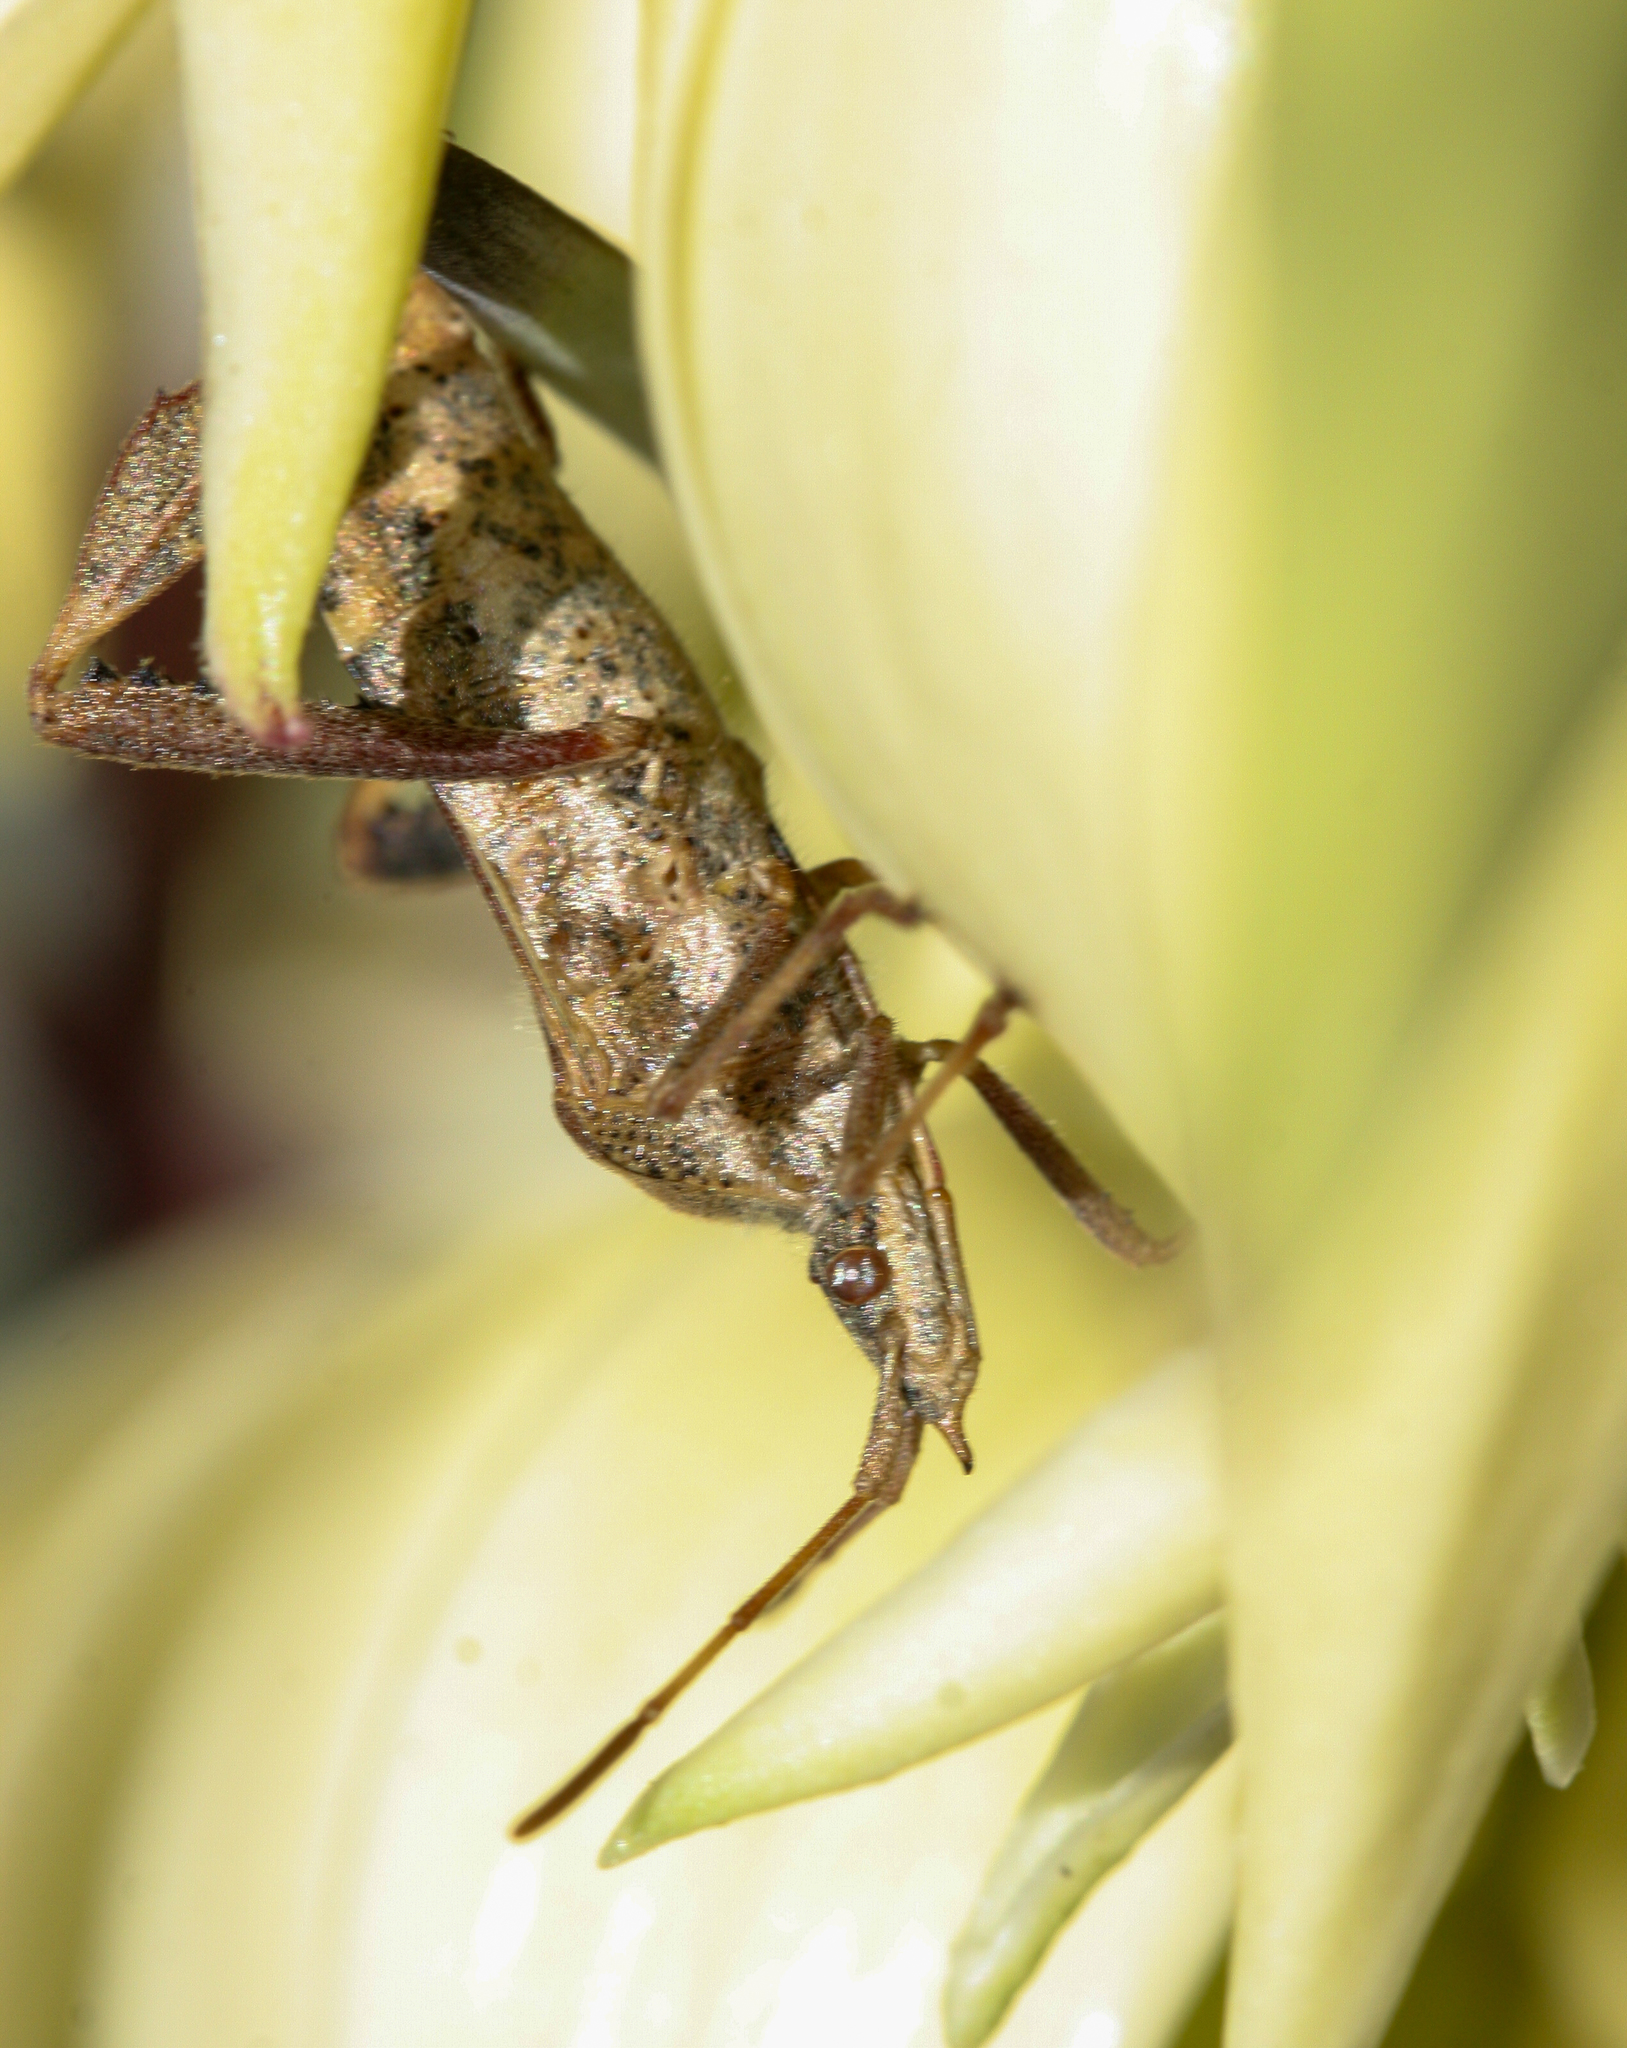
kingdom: Animalia
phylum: Arthropoda
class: Insecta
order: Hemiptera
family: Coreidae
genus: Leptoglossus
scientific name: Leptoglossus clypealis
